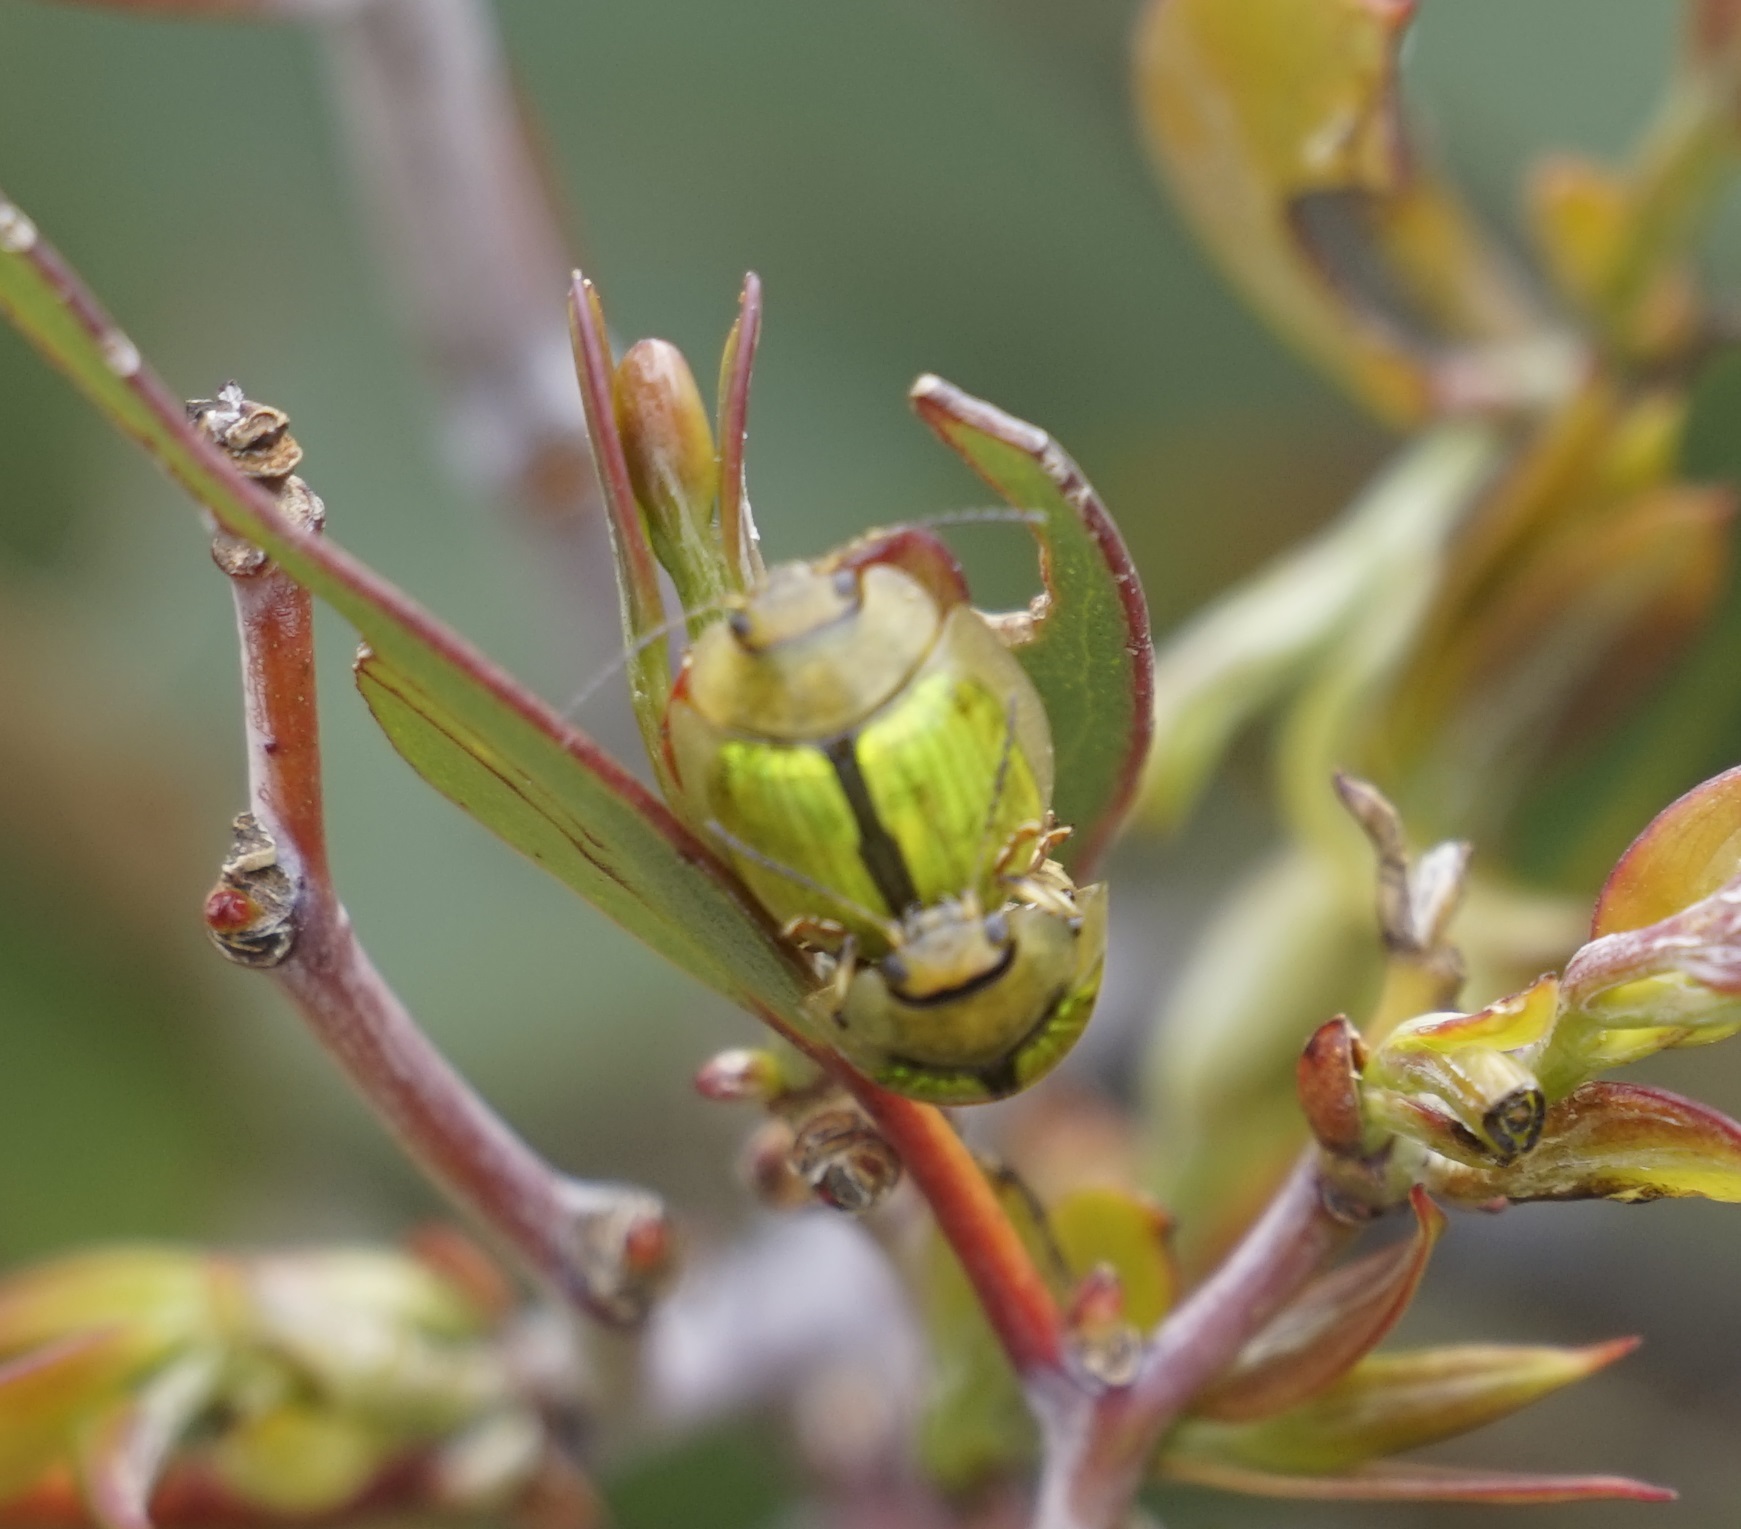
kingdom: Animalia
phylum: Arthropoda
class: Insecta
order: Coleoptera
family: Chrysomelidae
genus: Paropsisterna
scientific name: Paropsisterna
